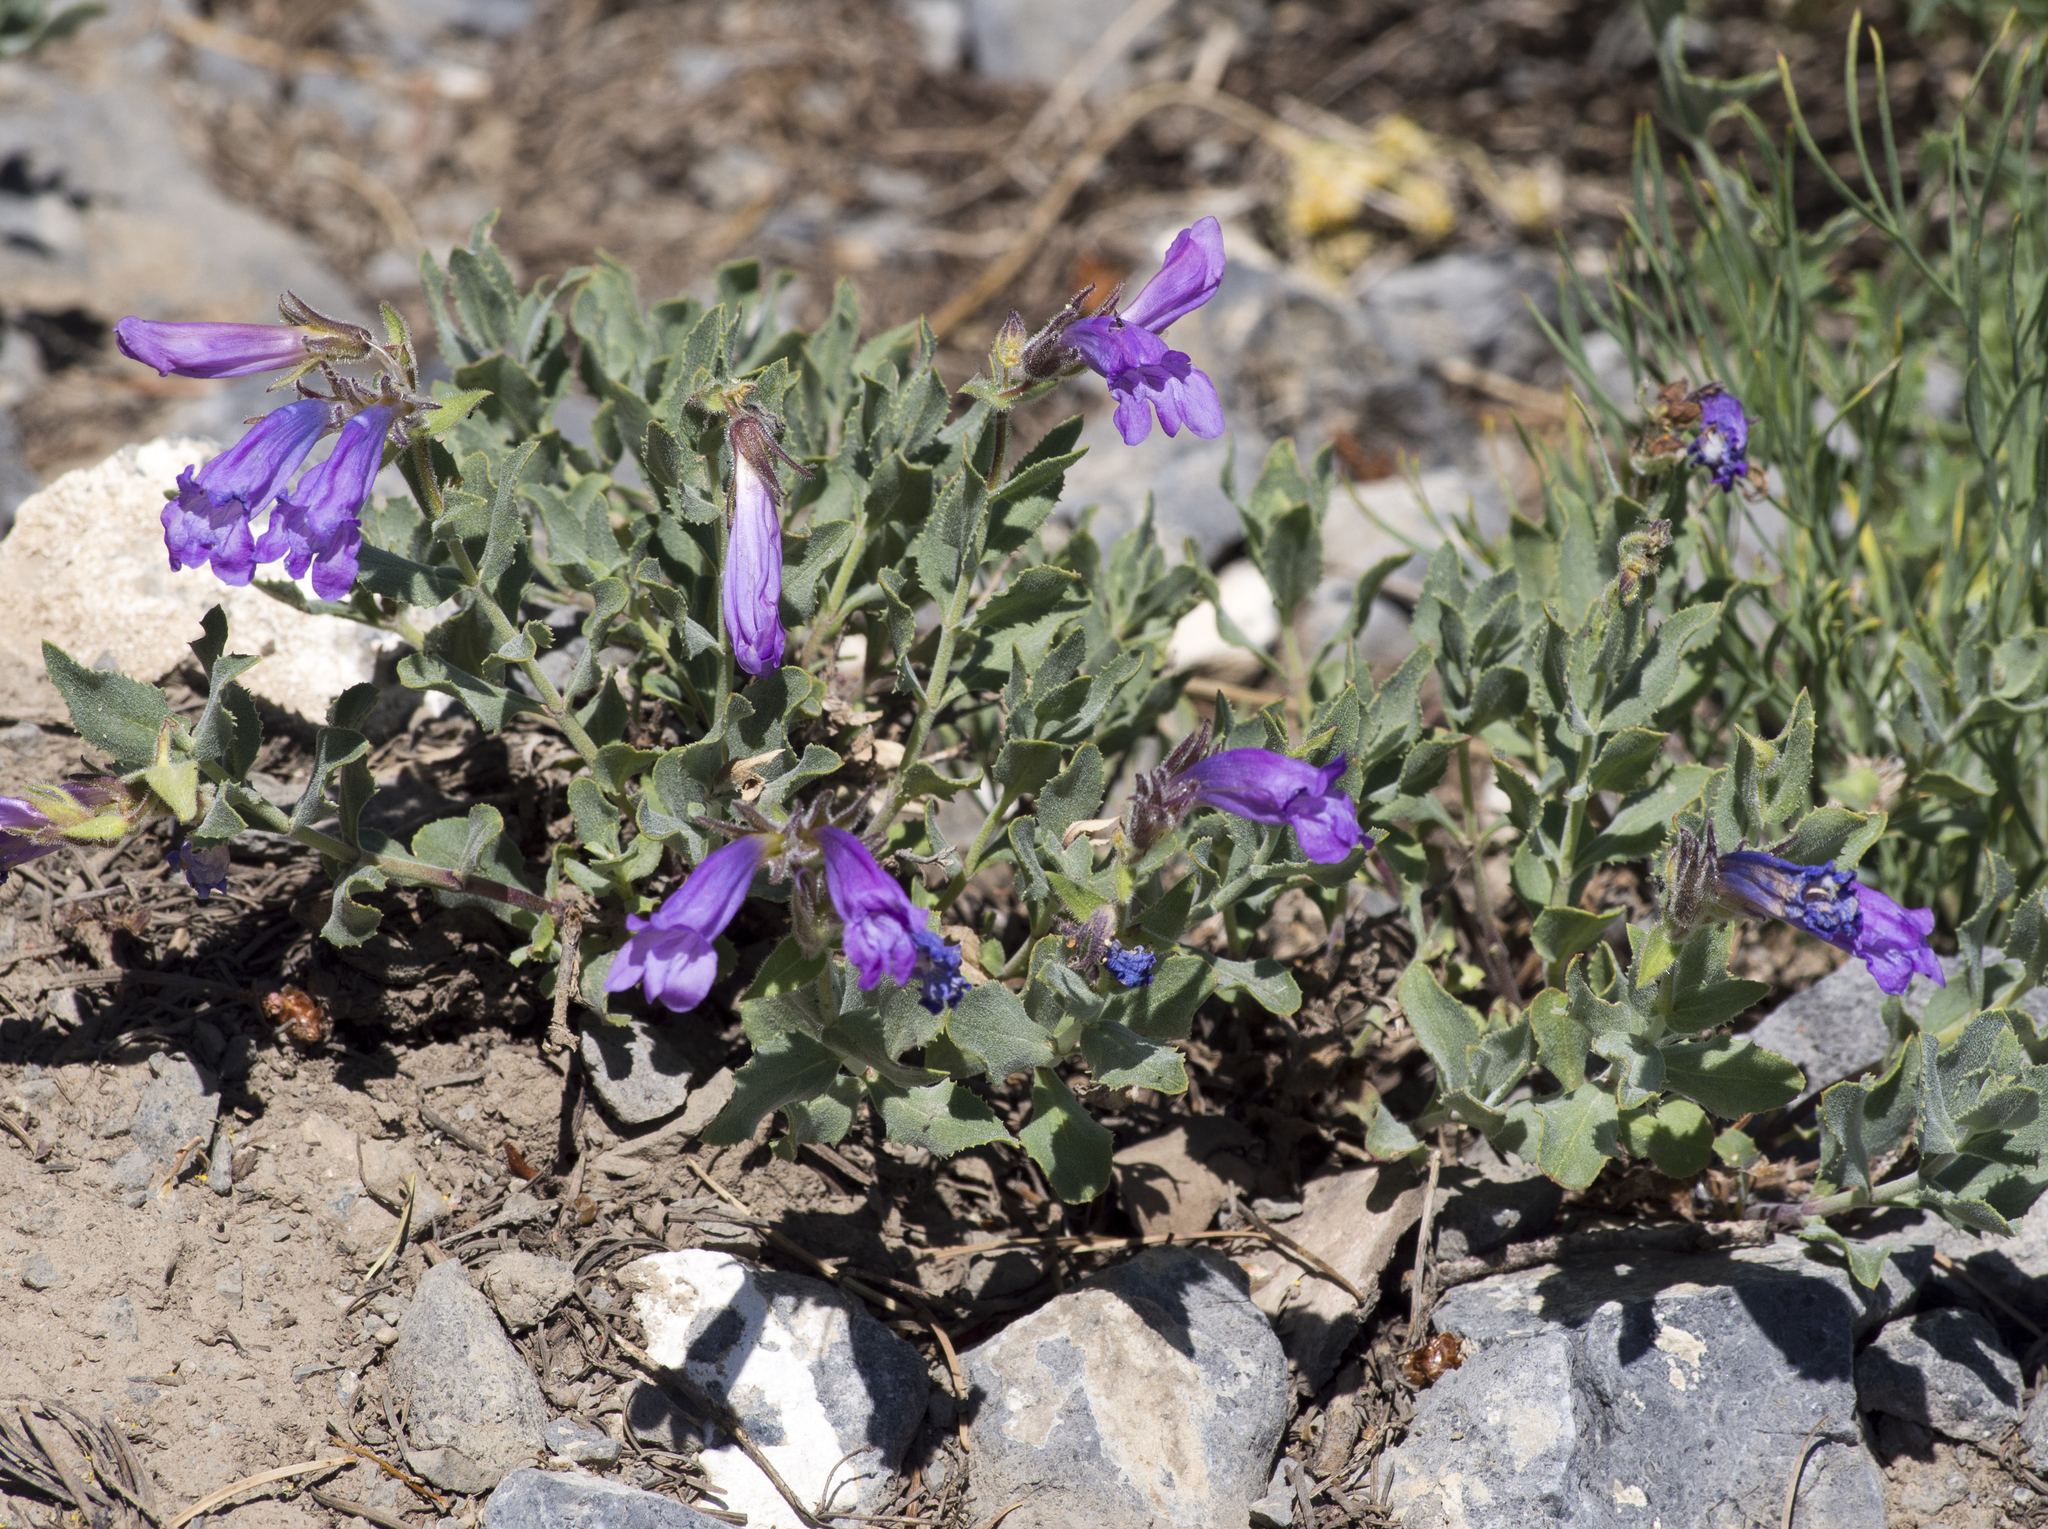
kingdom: Plantae
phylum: Tracheophyta
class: Magnoliopsida
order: Lamiales
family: Plantaginaceae
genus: Penstemon
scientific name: Penstemon montanus
